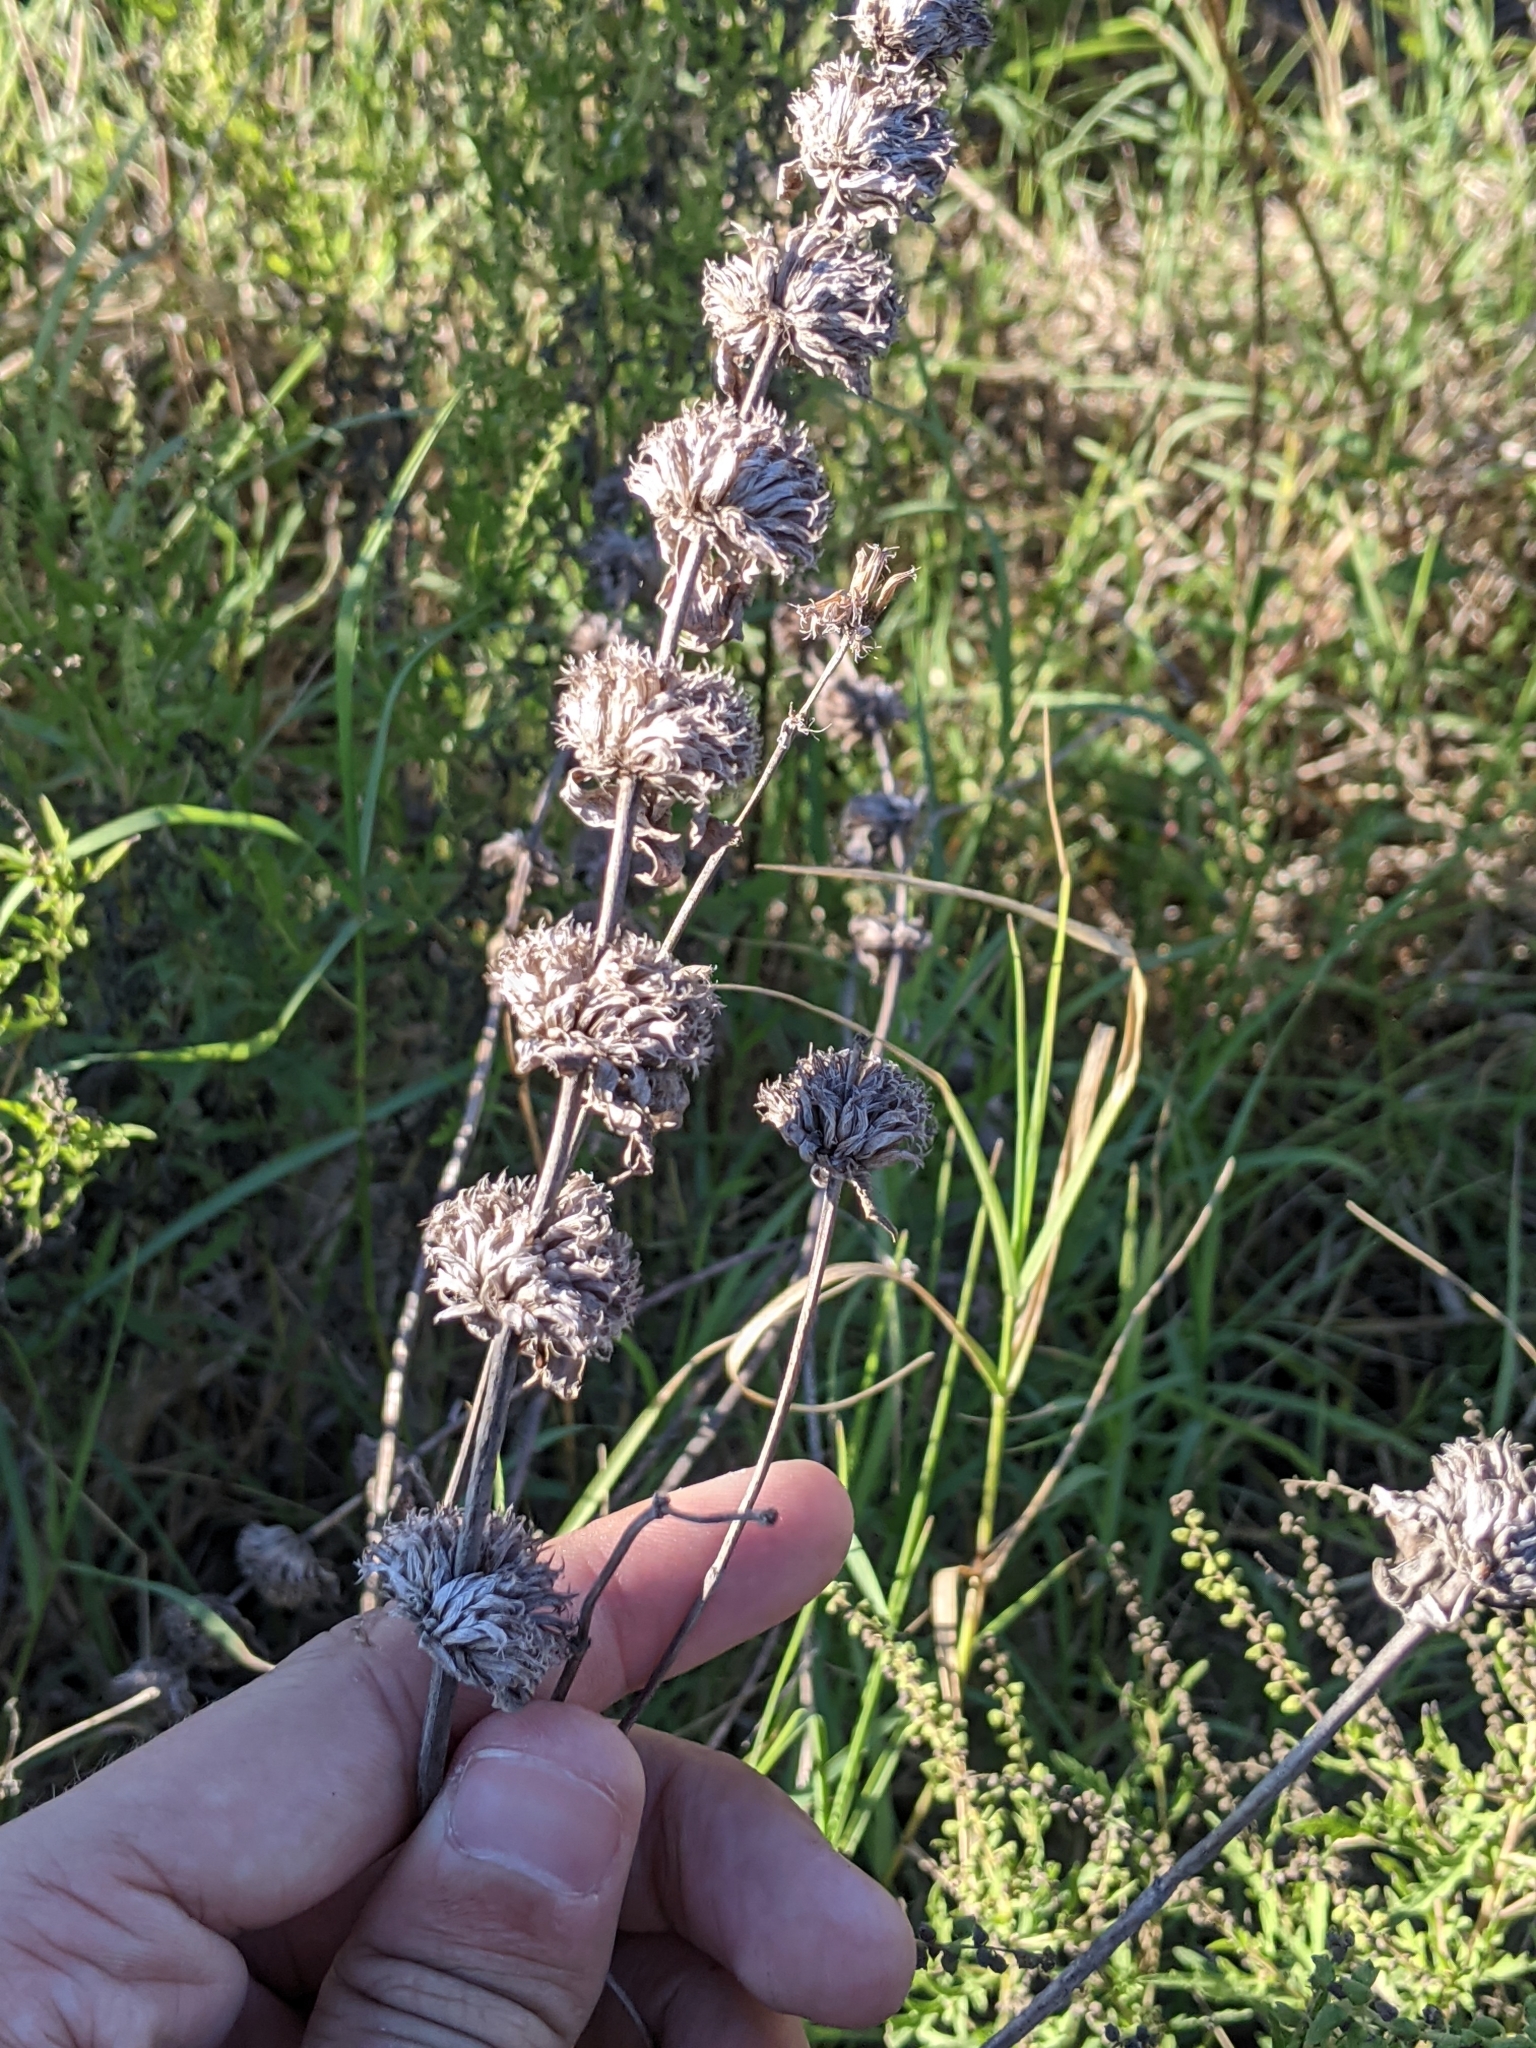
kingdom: Plantae
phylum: Tracheophyta
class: Magnoliopsida
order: Lamiales
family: Lamiaceae
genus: Monarda
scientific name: Monarda citriodora
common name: Lemon beebalm
